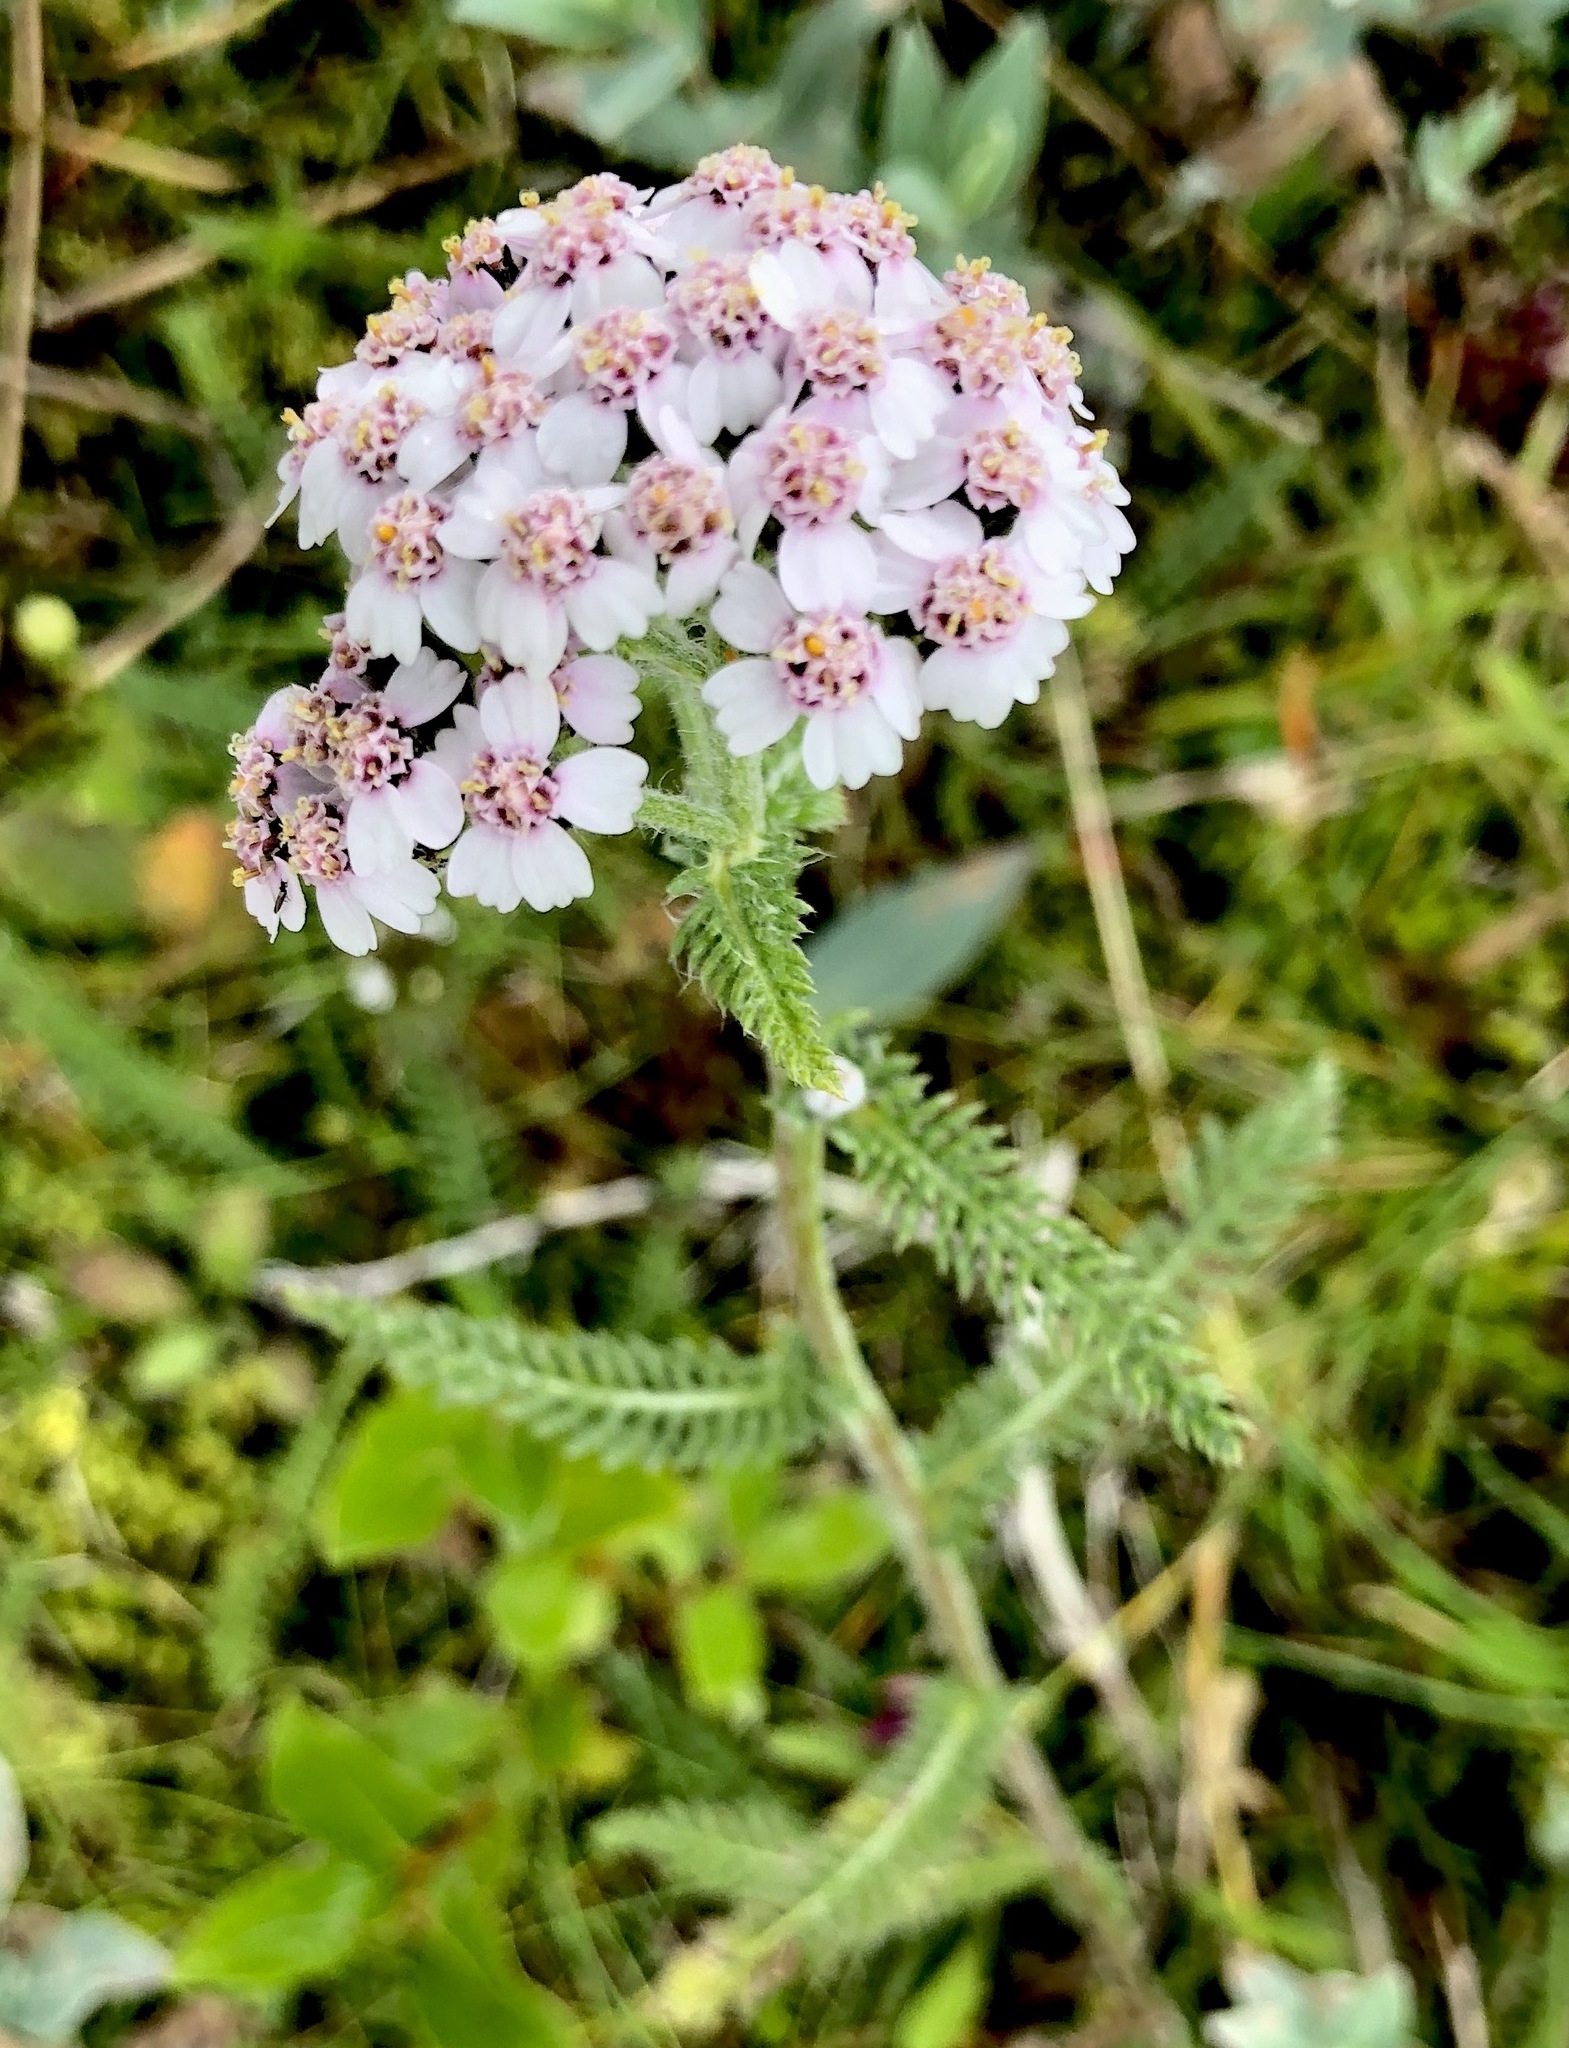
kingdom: Plantae
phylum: Tracheophyta
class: Magnoliopsida
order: Asterales
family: Asteraceae
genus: Achillea
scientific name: Achillea millefolium
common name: Yarrow
